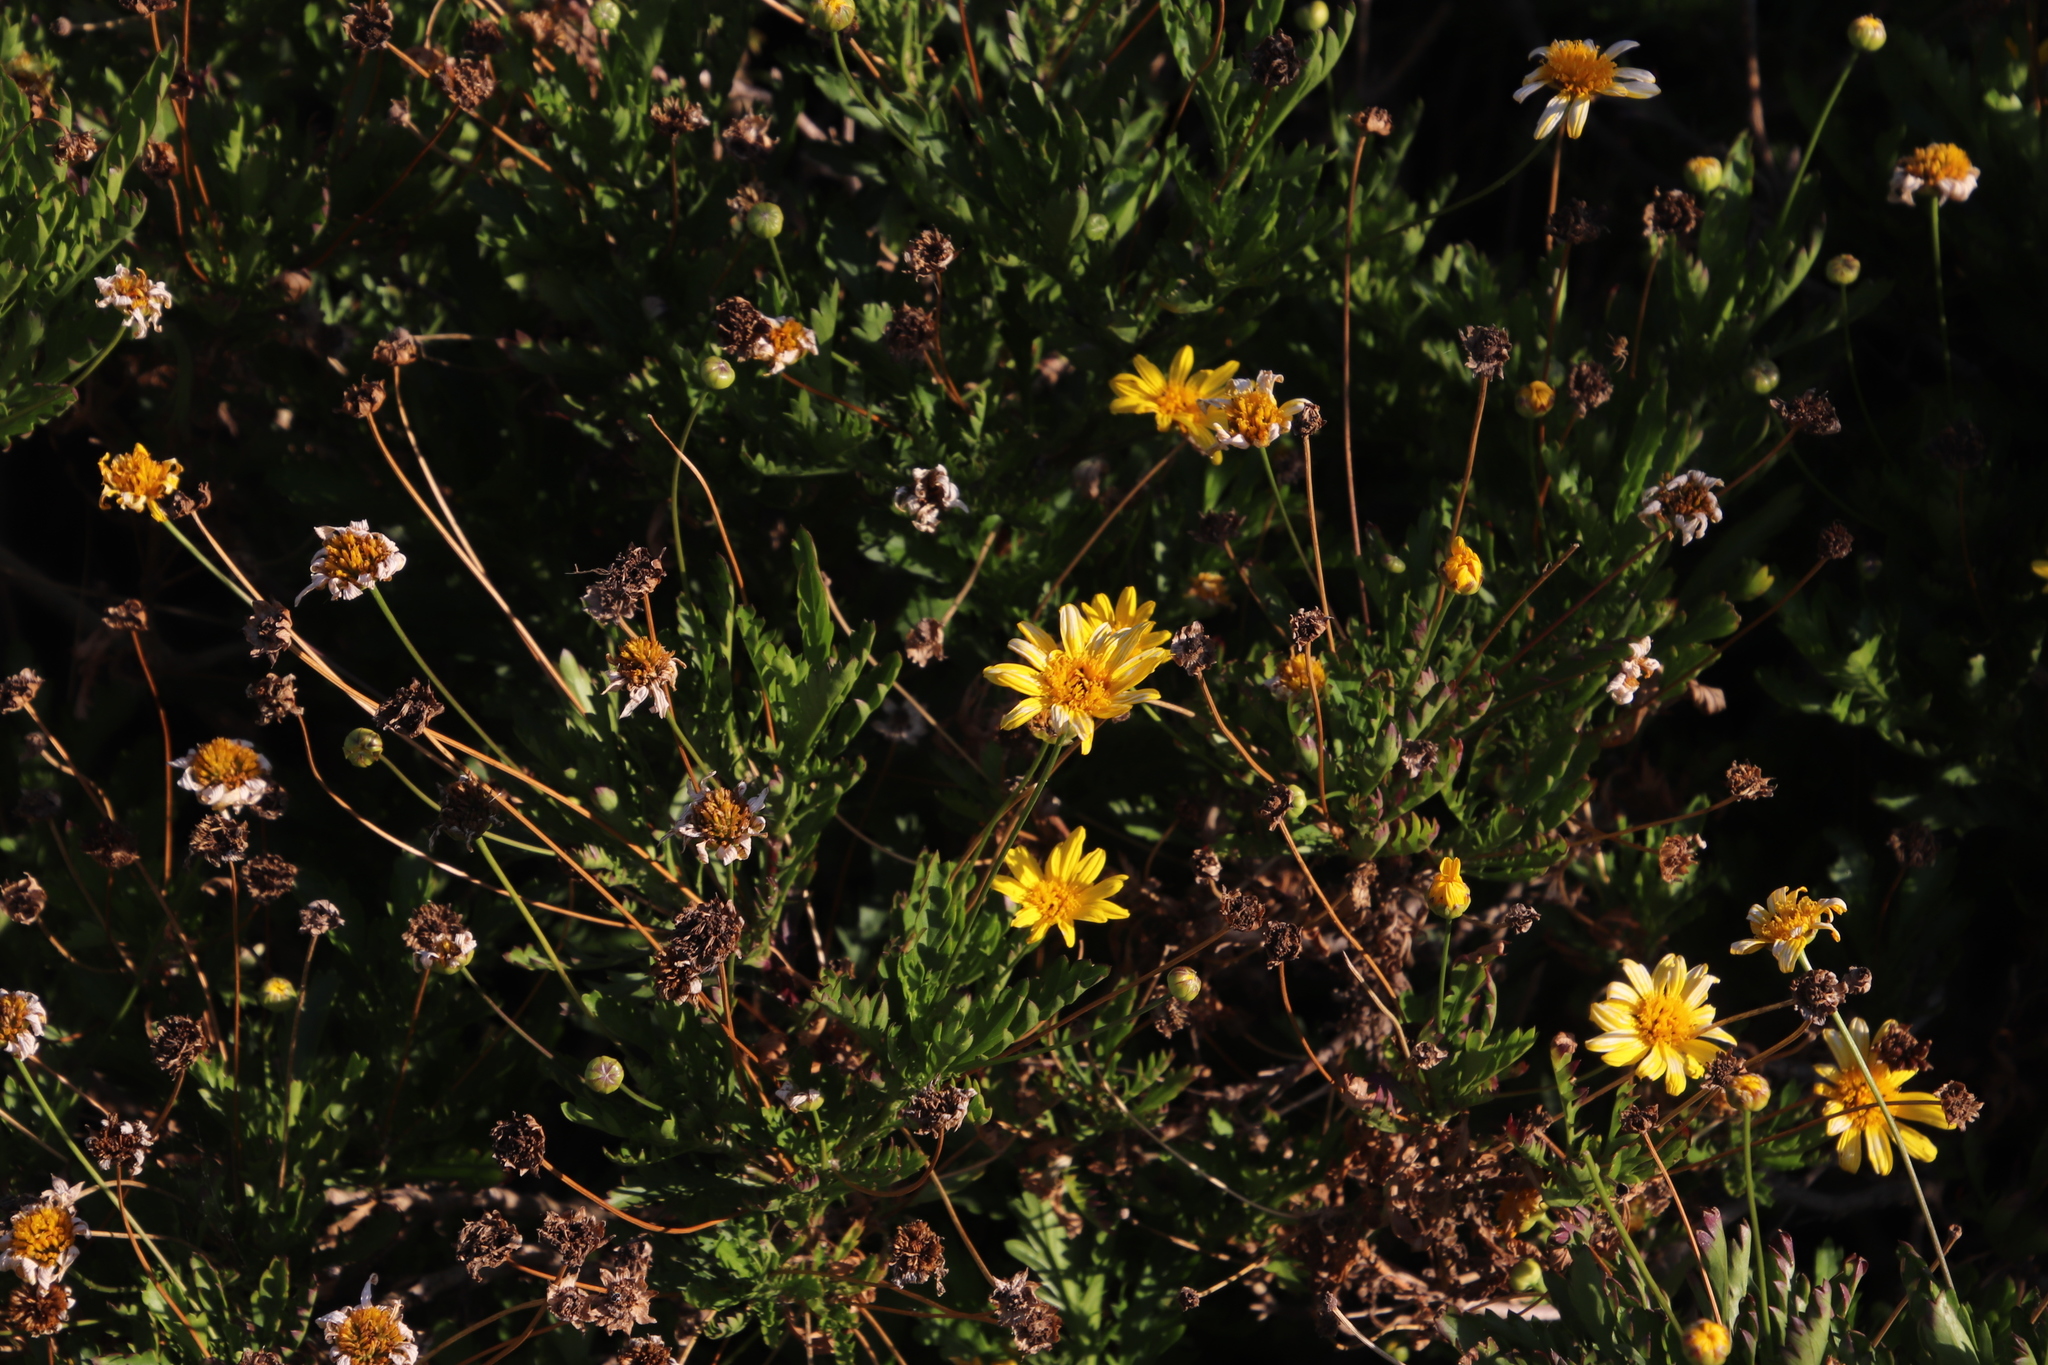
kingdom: Plantae
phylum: Tracheophyta
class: Magnoliopsida
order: Asterales
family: Asteraceae
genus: Euryops
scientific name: Euryops chrysanthemoides
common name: Bull's eye
